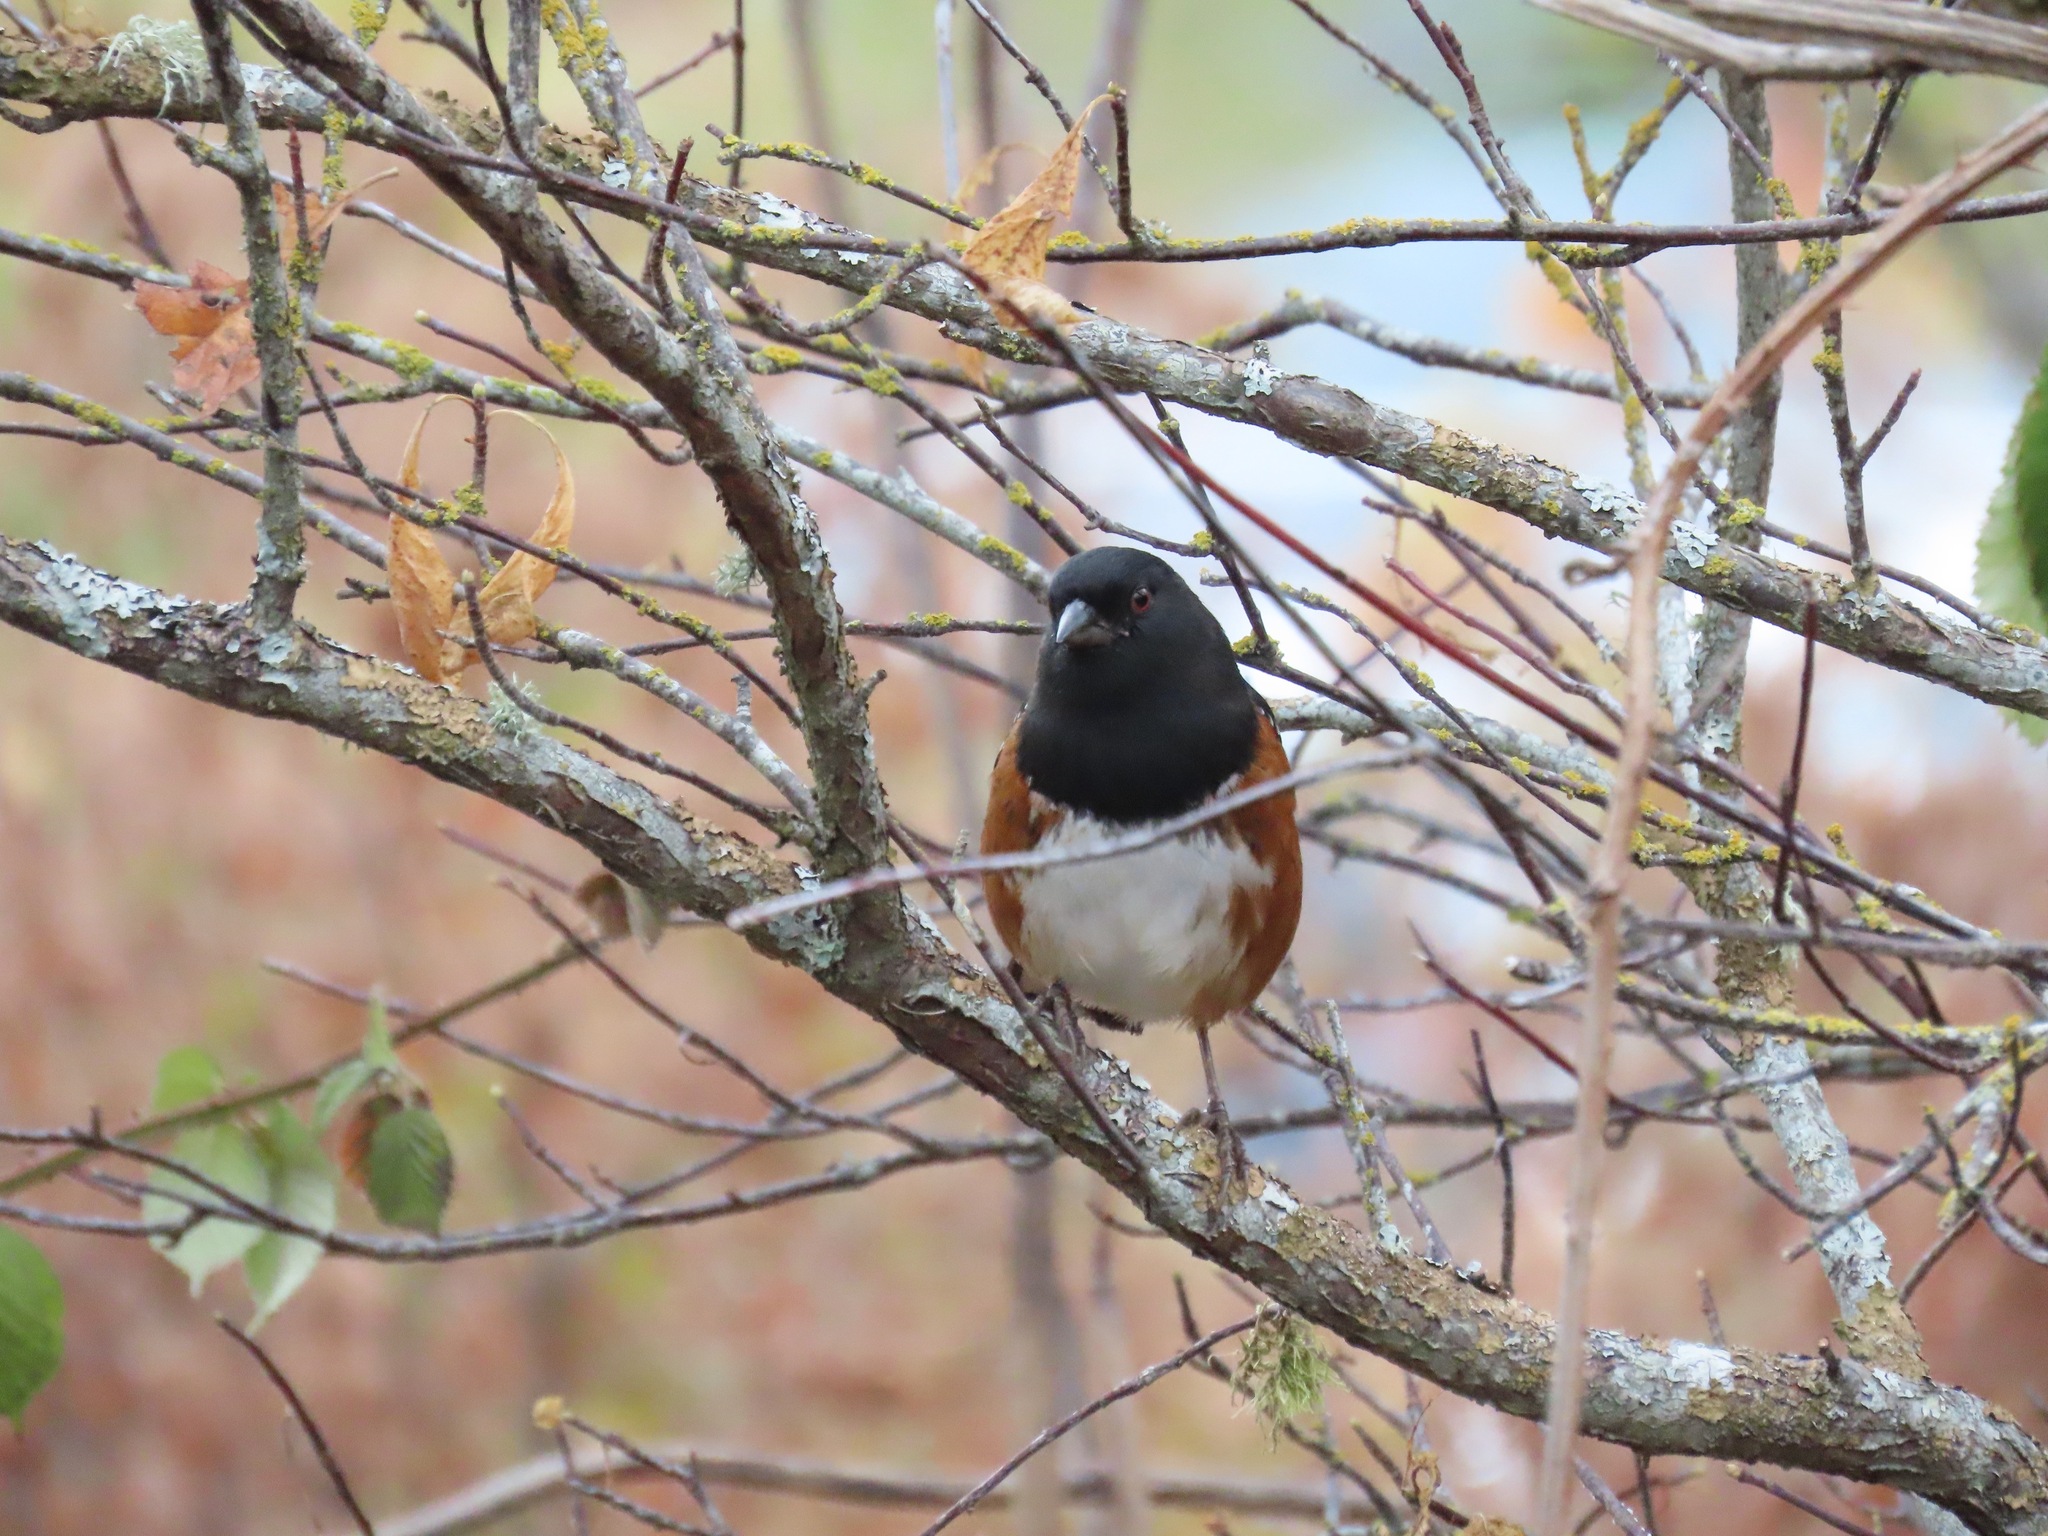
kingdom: Animalia
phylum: Chordata
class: Aves
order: Passeriformes
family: Passerellidae
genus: Pipilo
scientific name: Pipilo maculatus
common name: Spotted towhee
